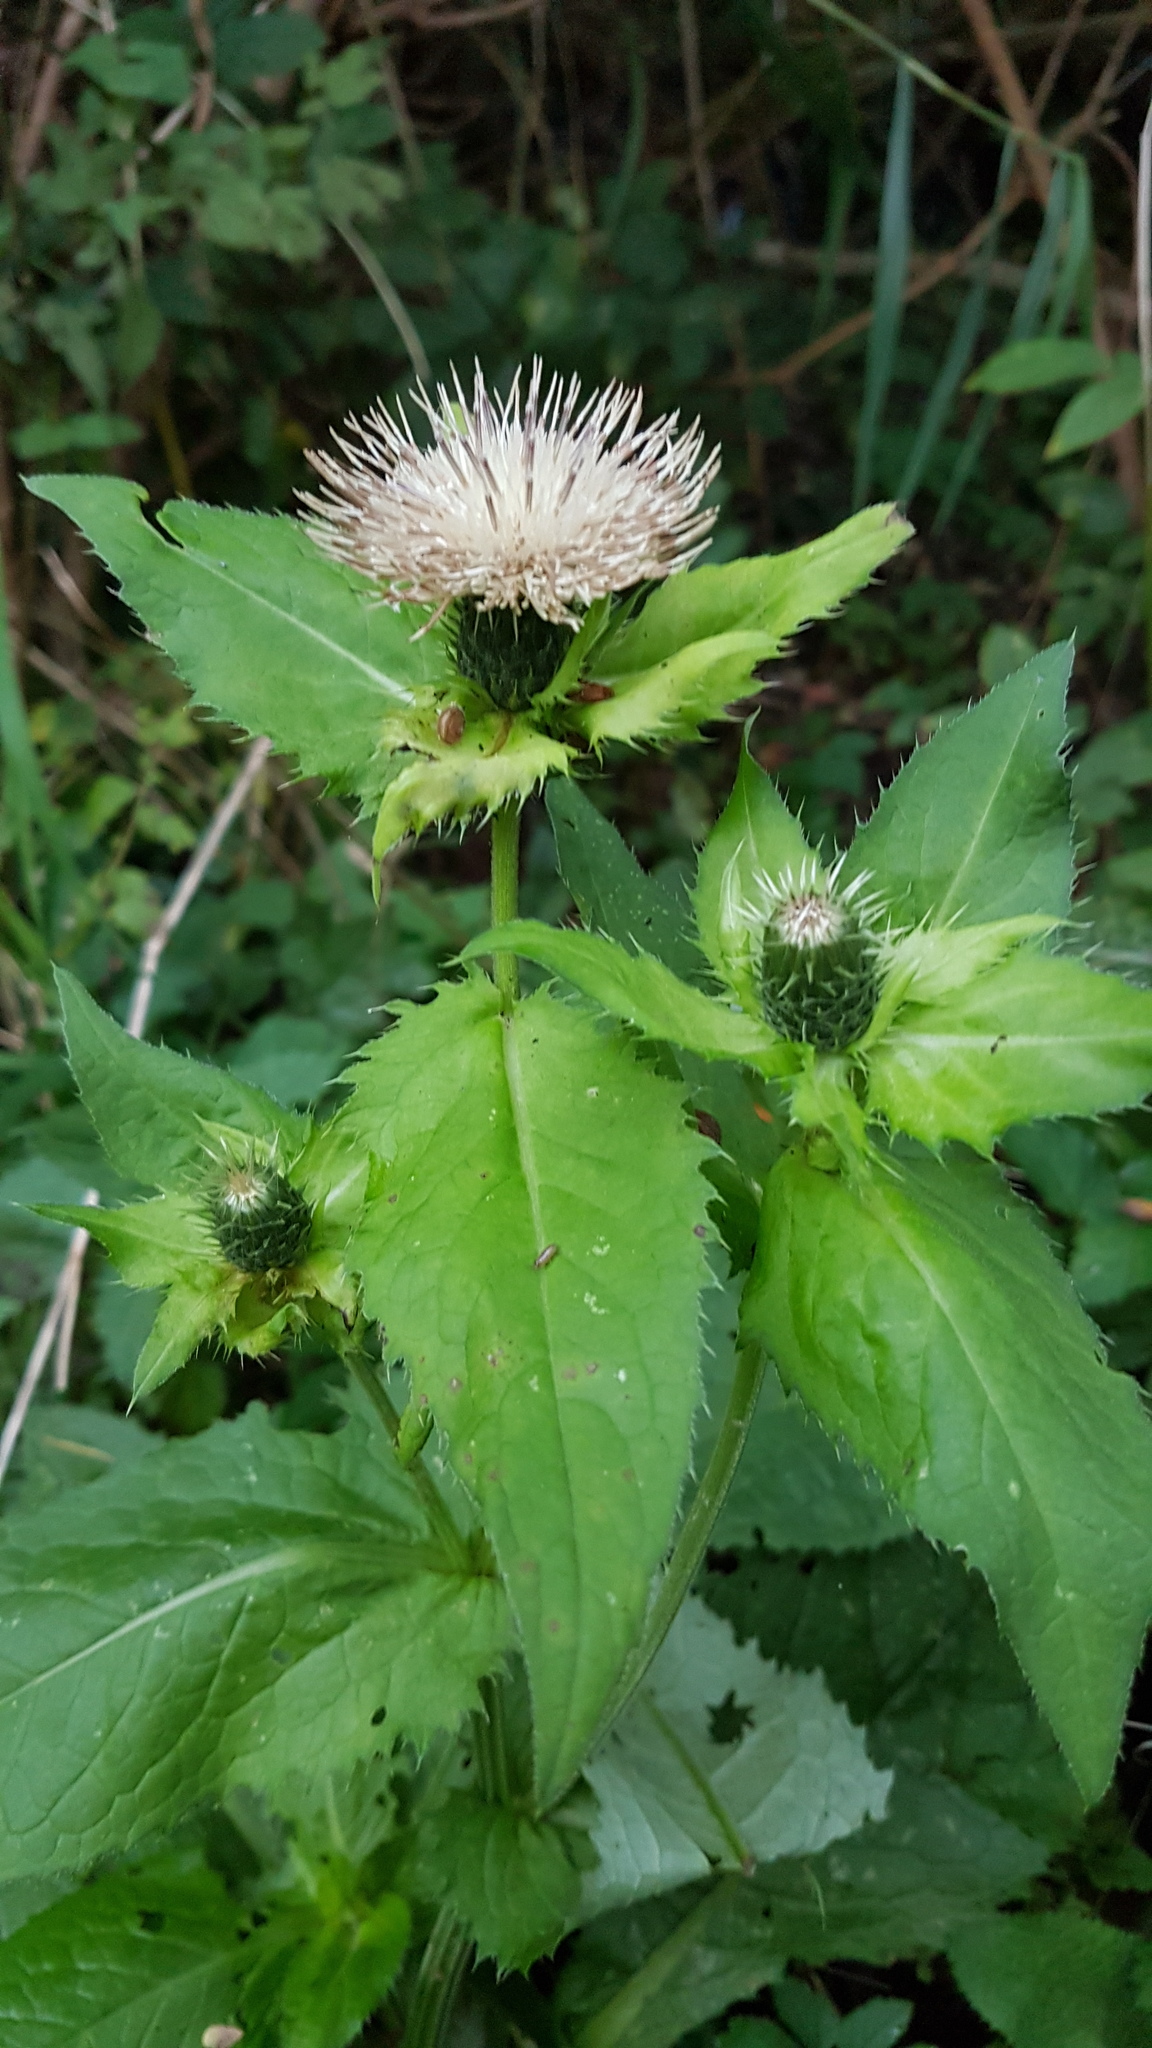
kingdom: Plantae
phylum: Tracheophyta
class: Magnoliopsida
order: Asterales
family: Asteraceae
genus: Cirsium
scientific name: Cirsium oleraceum
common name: Cabbage thistle
